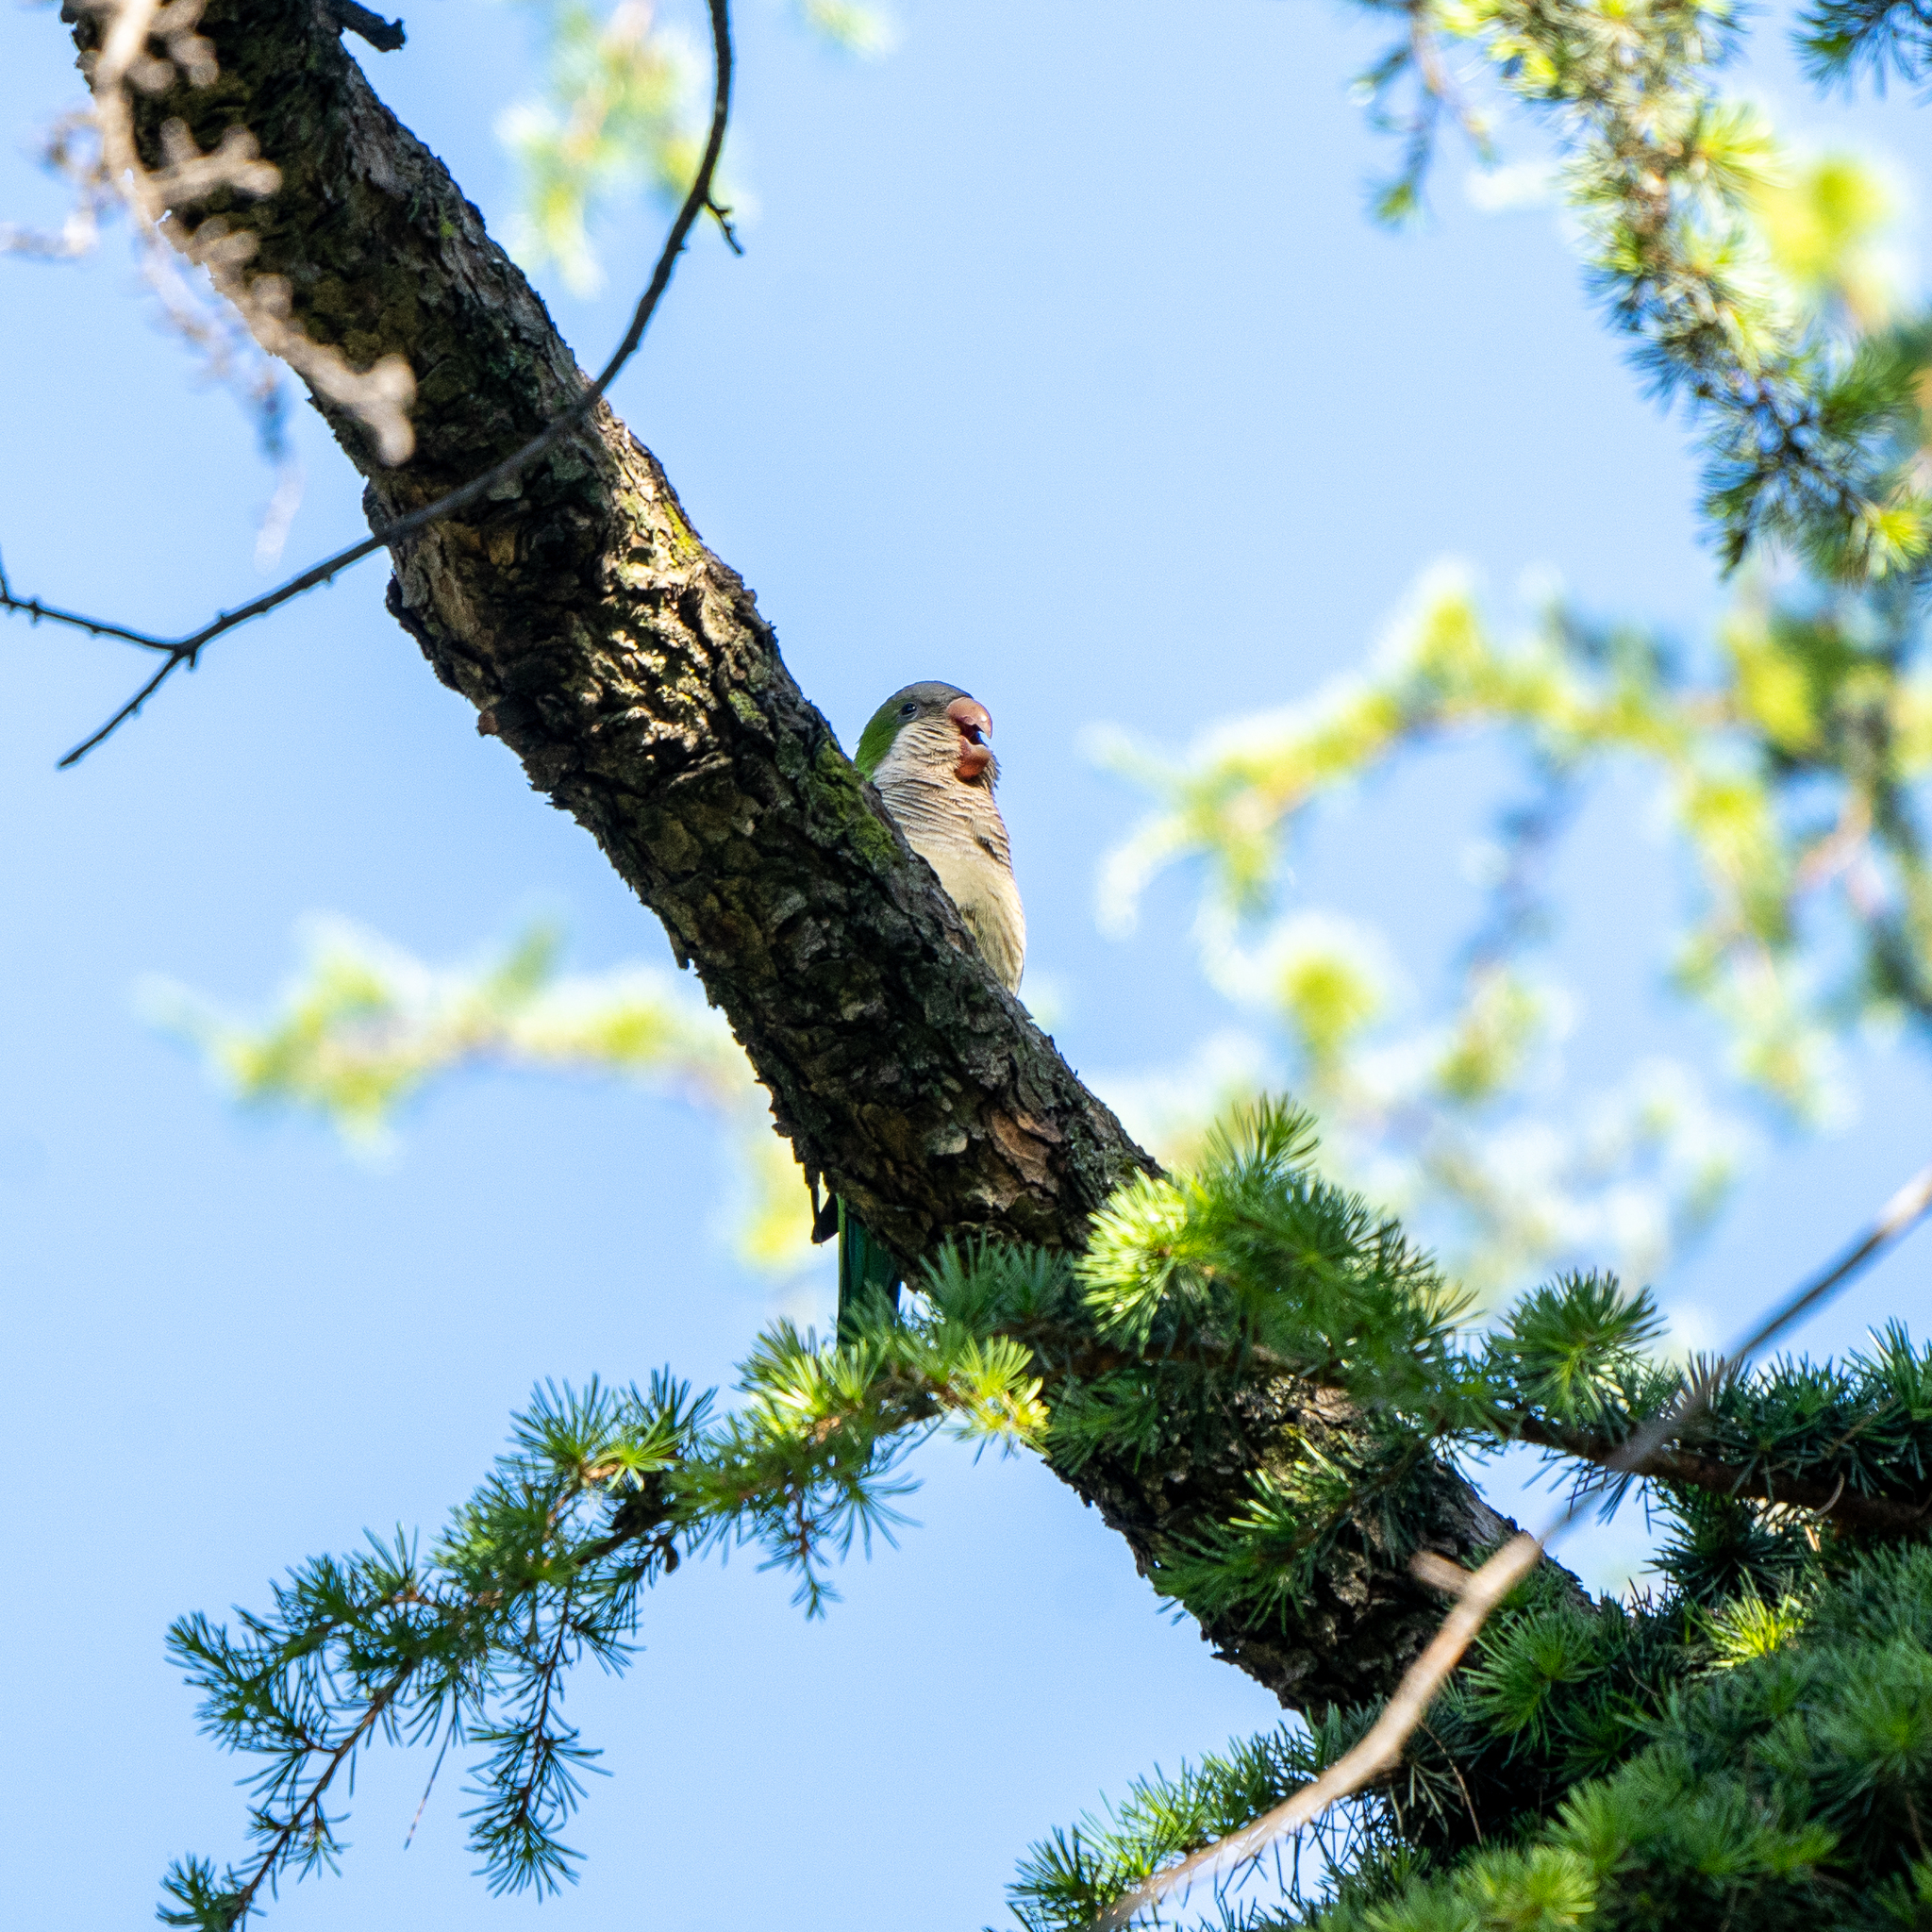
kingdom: Animalia
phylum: Chordata
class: Aves
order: Psittaciformes
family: Psittacidae
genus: Myiopsitta
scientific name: Myiopsitta monachus
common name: Monk parakeet
